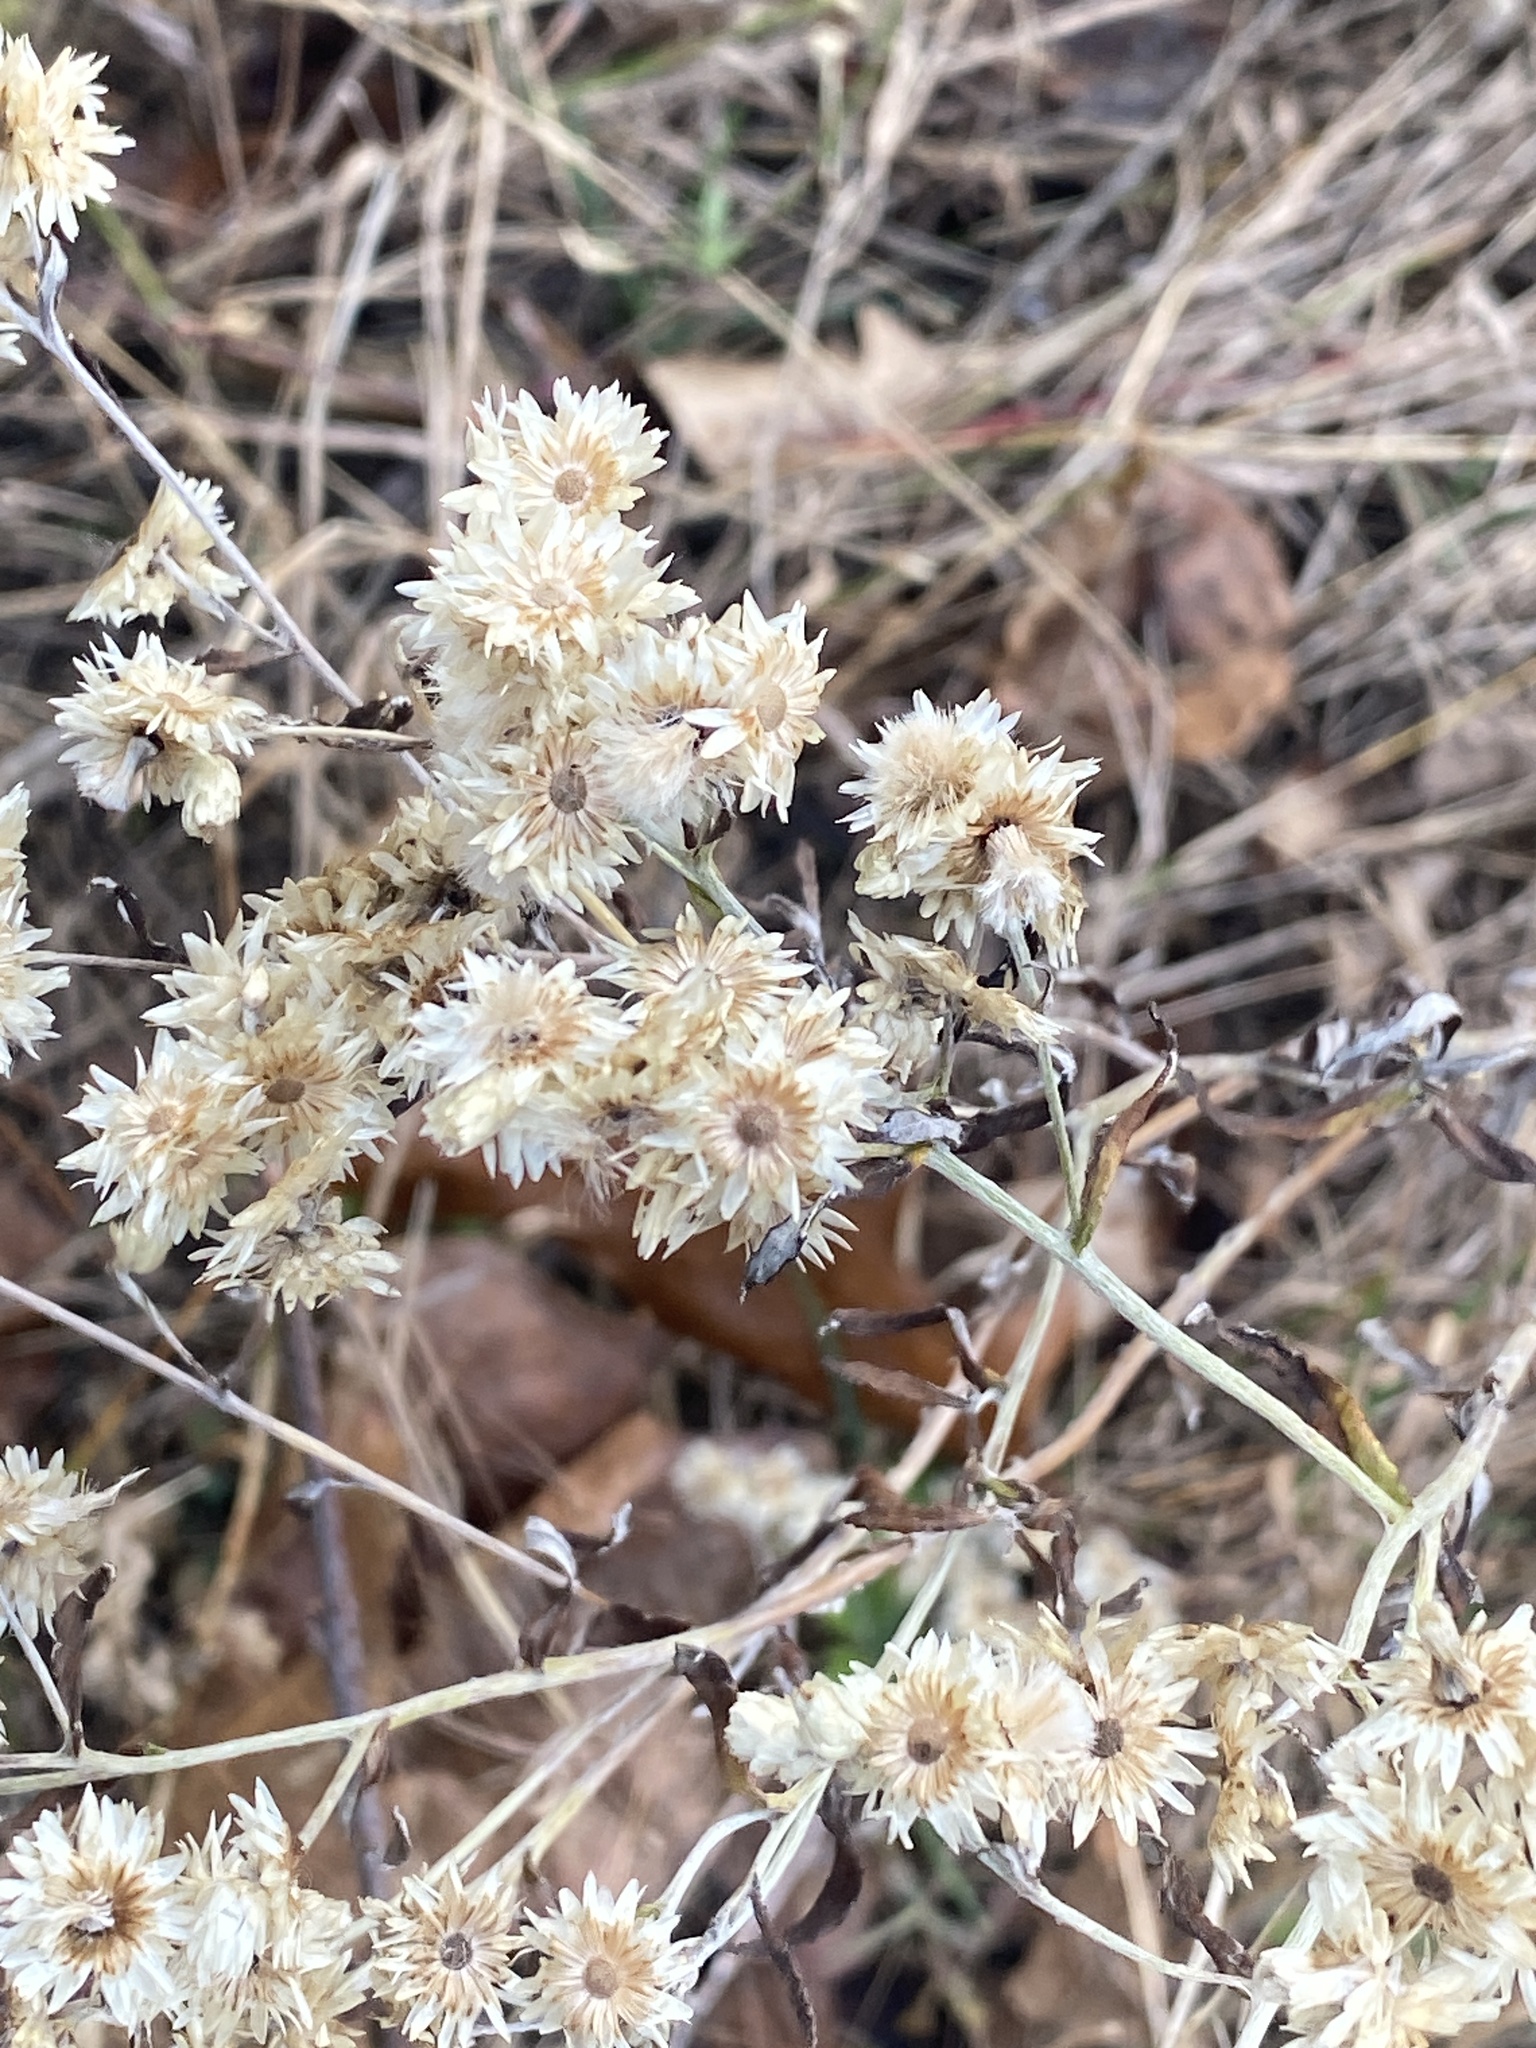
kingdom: Plantae
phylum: Tracheophyta
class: Magnoliopsida
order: Asterales
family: Asteraceae
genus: Pseudognaphalium
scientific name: Pseudognaphalium obtusifolium
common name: Eastern rabbit-tobacco
